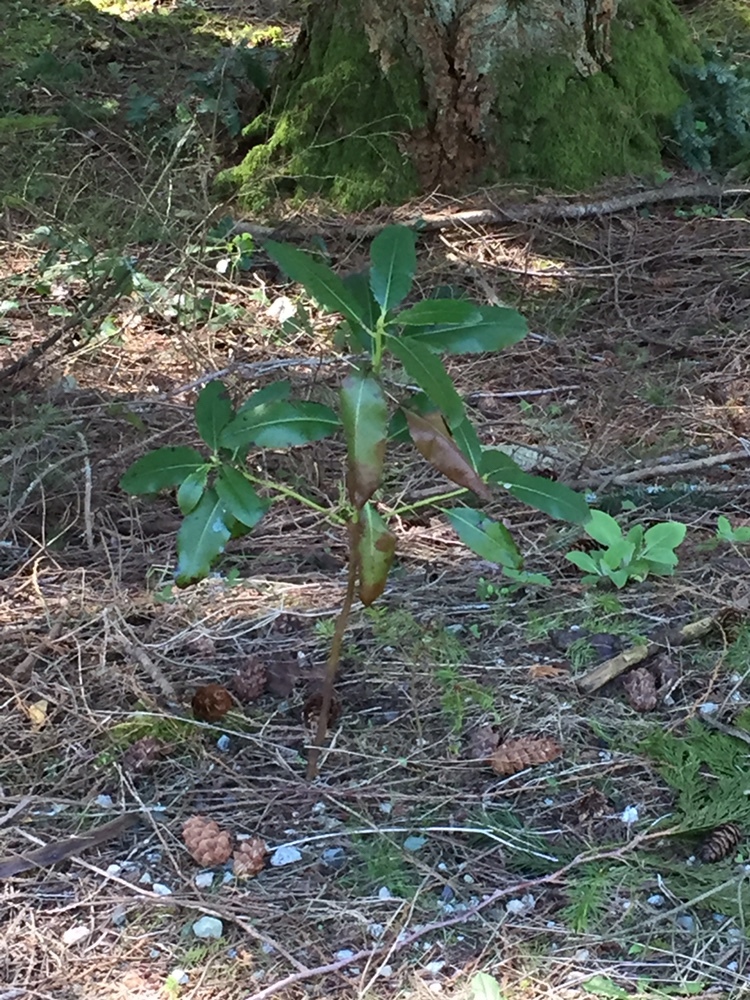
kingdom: Plantae
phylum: Tracheophyta
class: Magnoliopsida
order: Ericales
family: Ericaceae
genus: Arbutus
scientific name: Arbutus menziesii
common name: Pacific madrone
